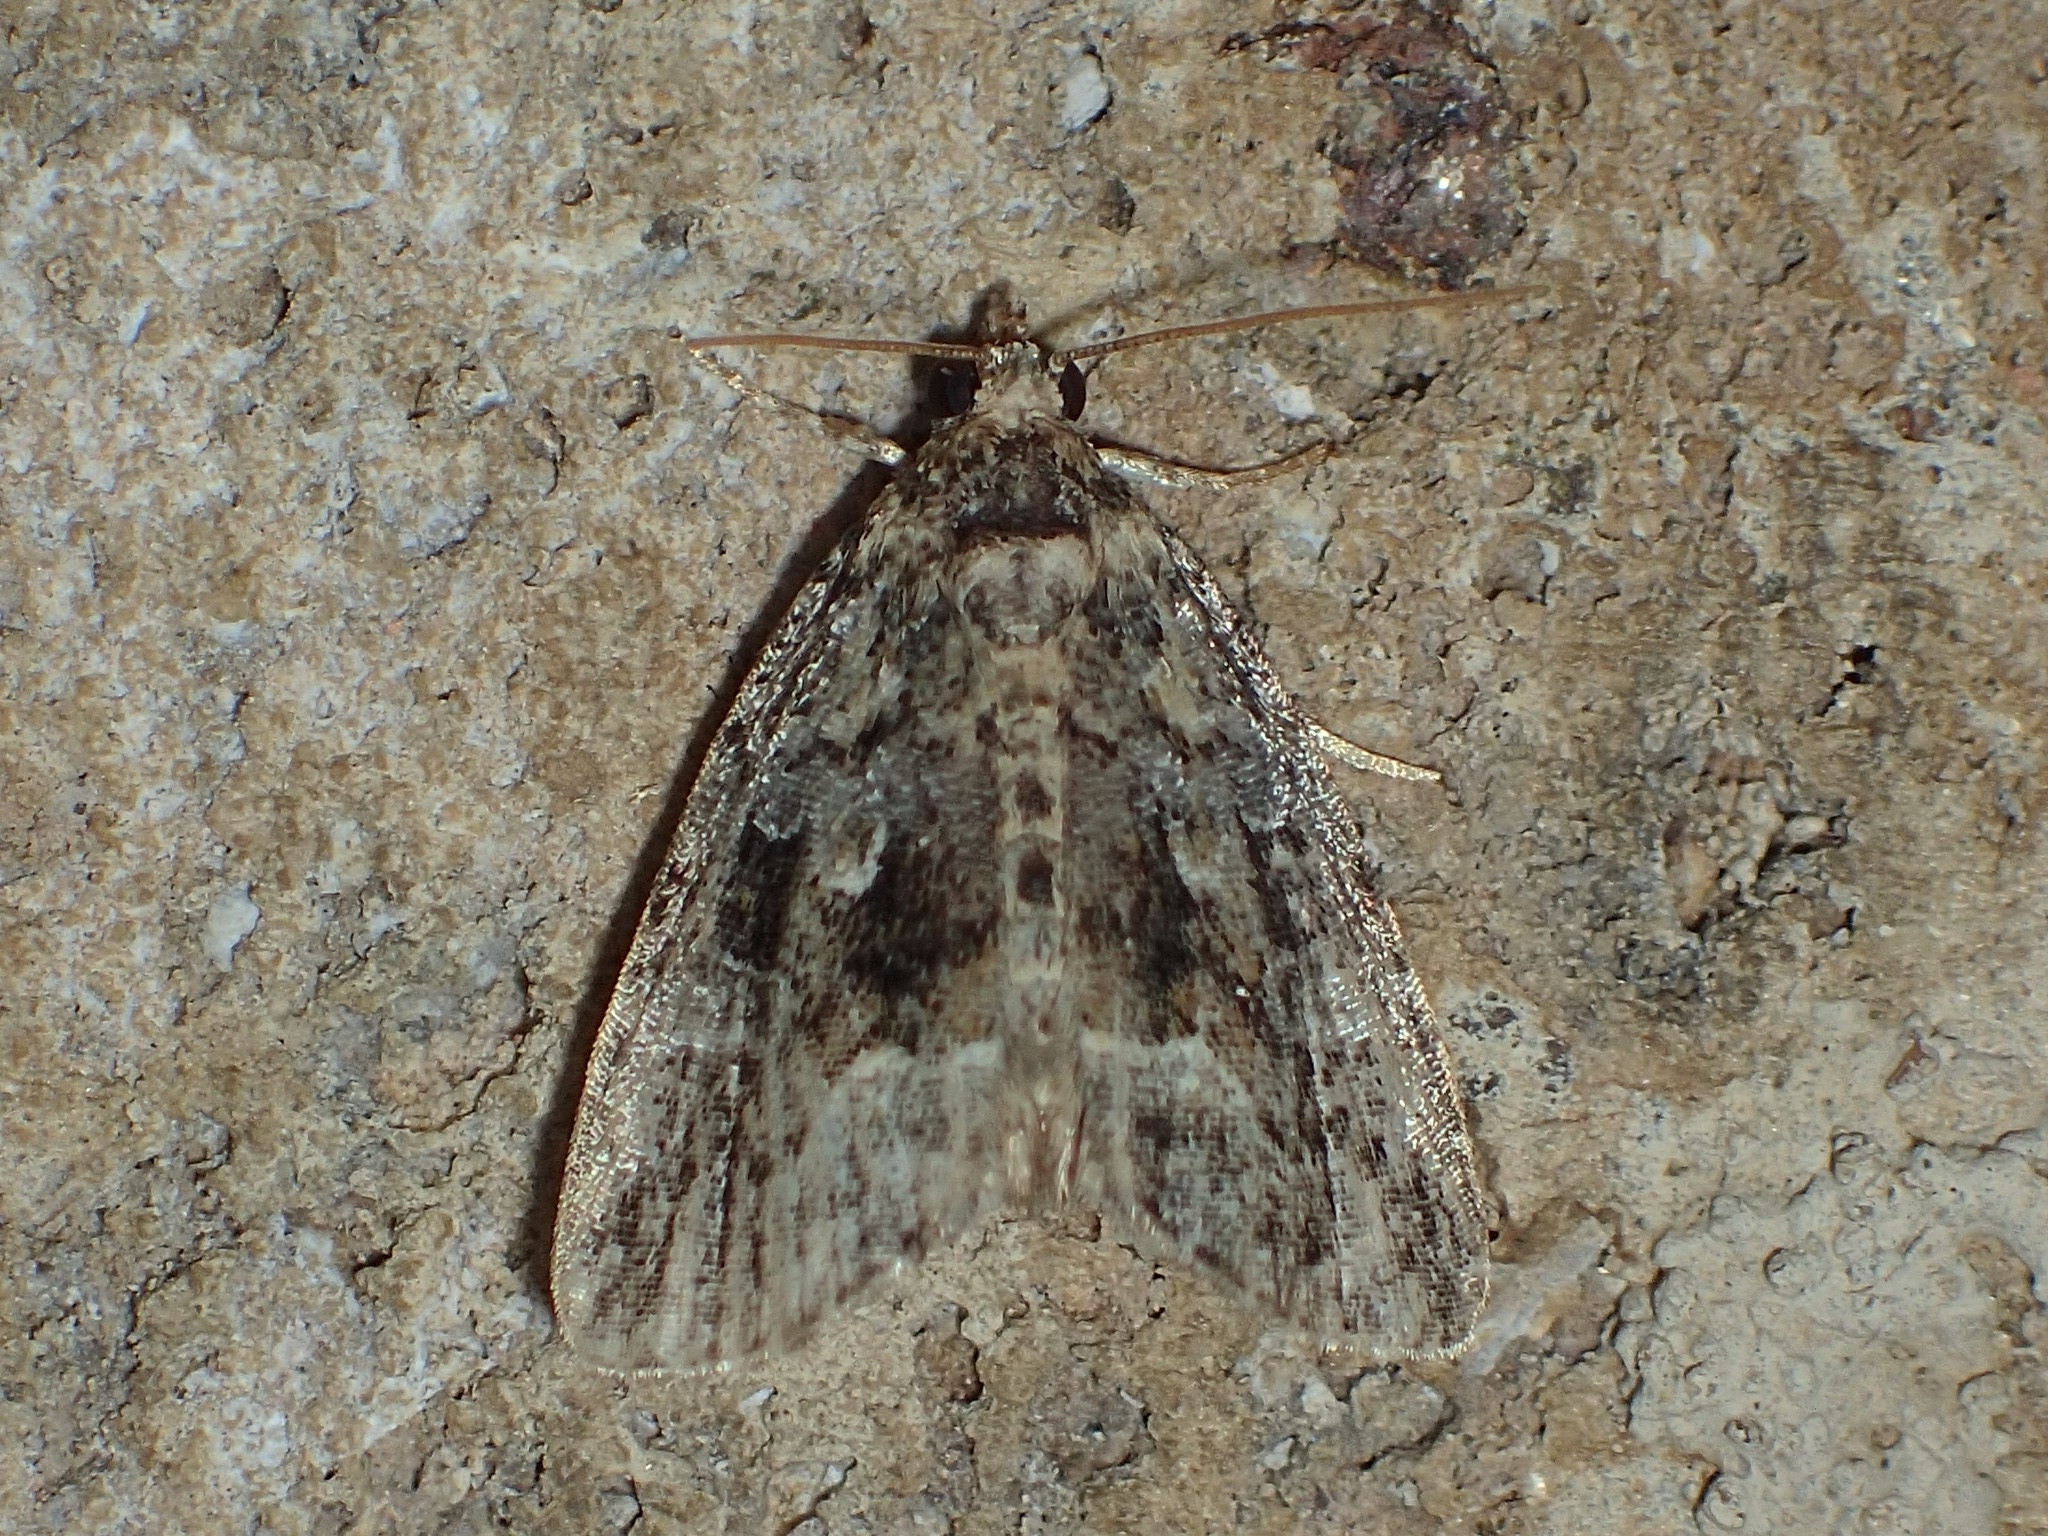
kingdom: Animalia
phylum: Arthropoda
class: Insecta
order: Lepidoptera
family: Noctuidae
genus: Protodeltote
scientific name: Protodeltote muscosula
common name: Large mossy glyph
